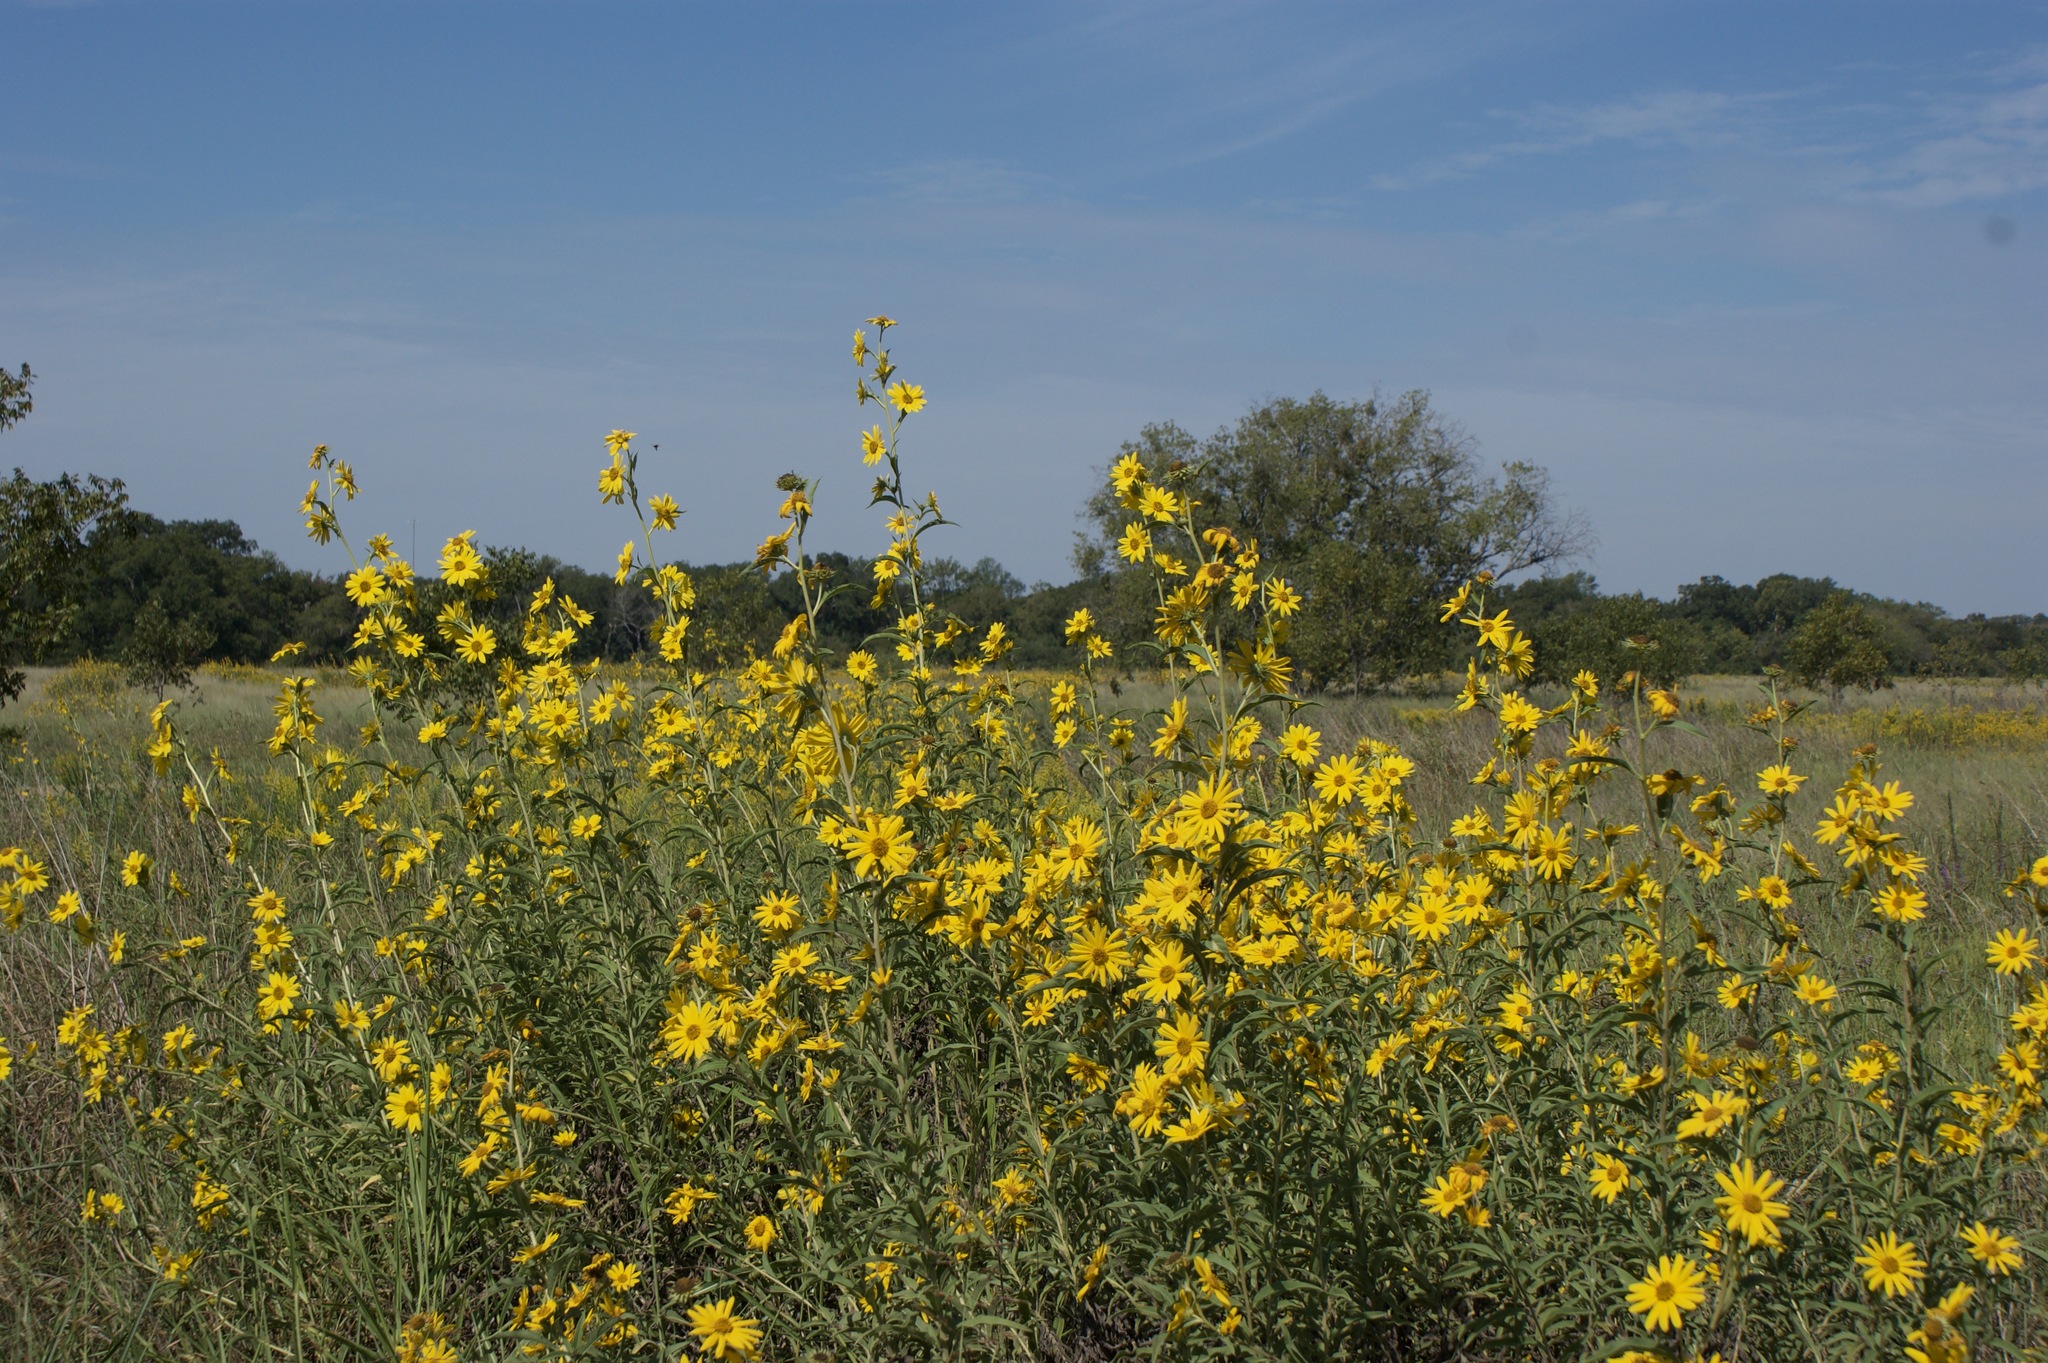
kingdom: Plantae
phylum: Tracheophyta
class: Magnoliopsida
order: Asterales
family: Asteraceae
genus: Helianthus
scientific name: Helianthus maximiliani
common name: Maximilian's sunflower
